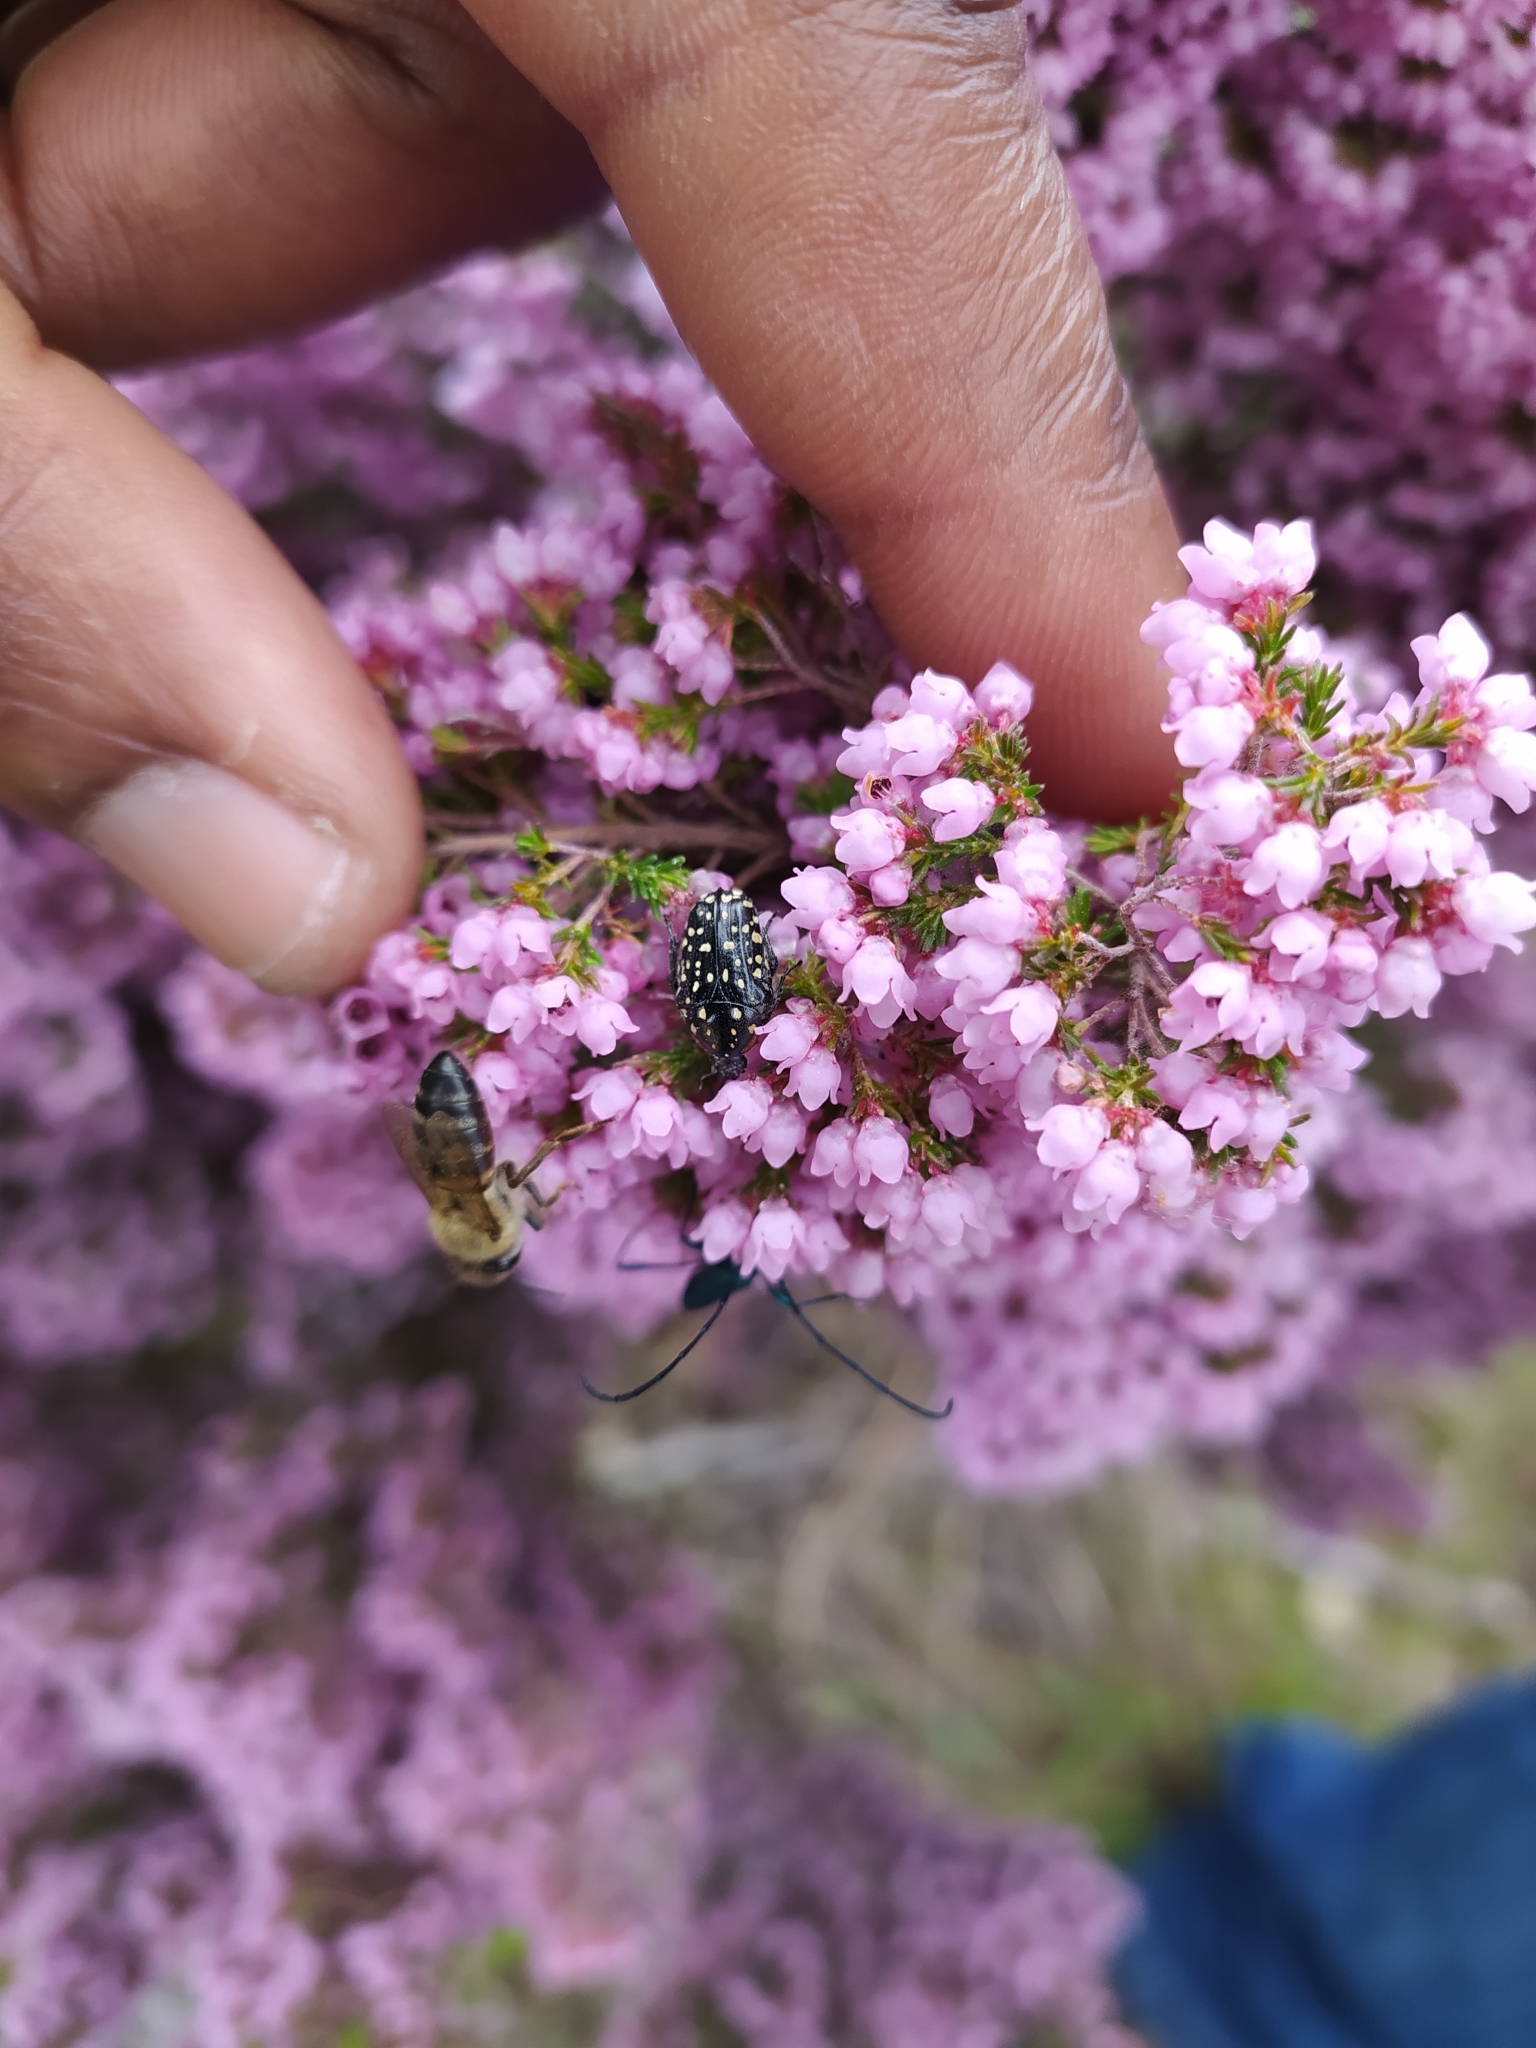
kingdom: Animalia
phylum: Arthropoda
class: Insecta
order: Coleoptera
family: Scarabaeidae
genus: Oxythyrea
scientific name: Oxythyrea
